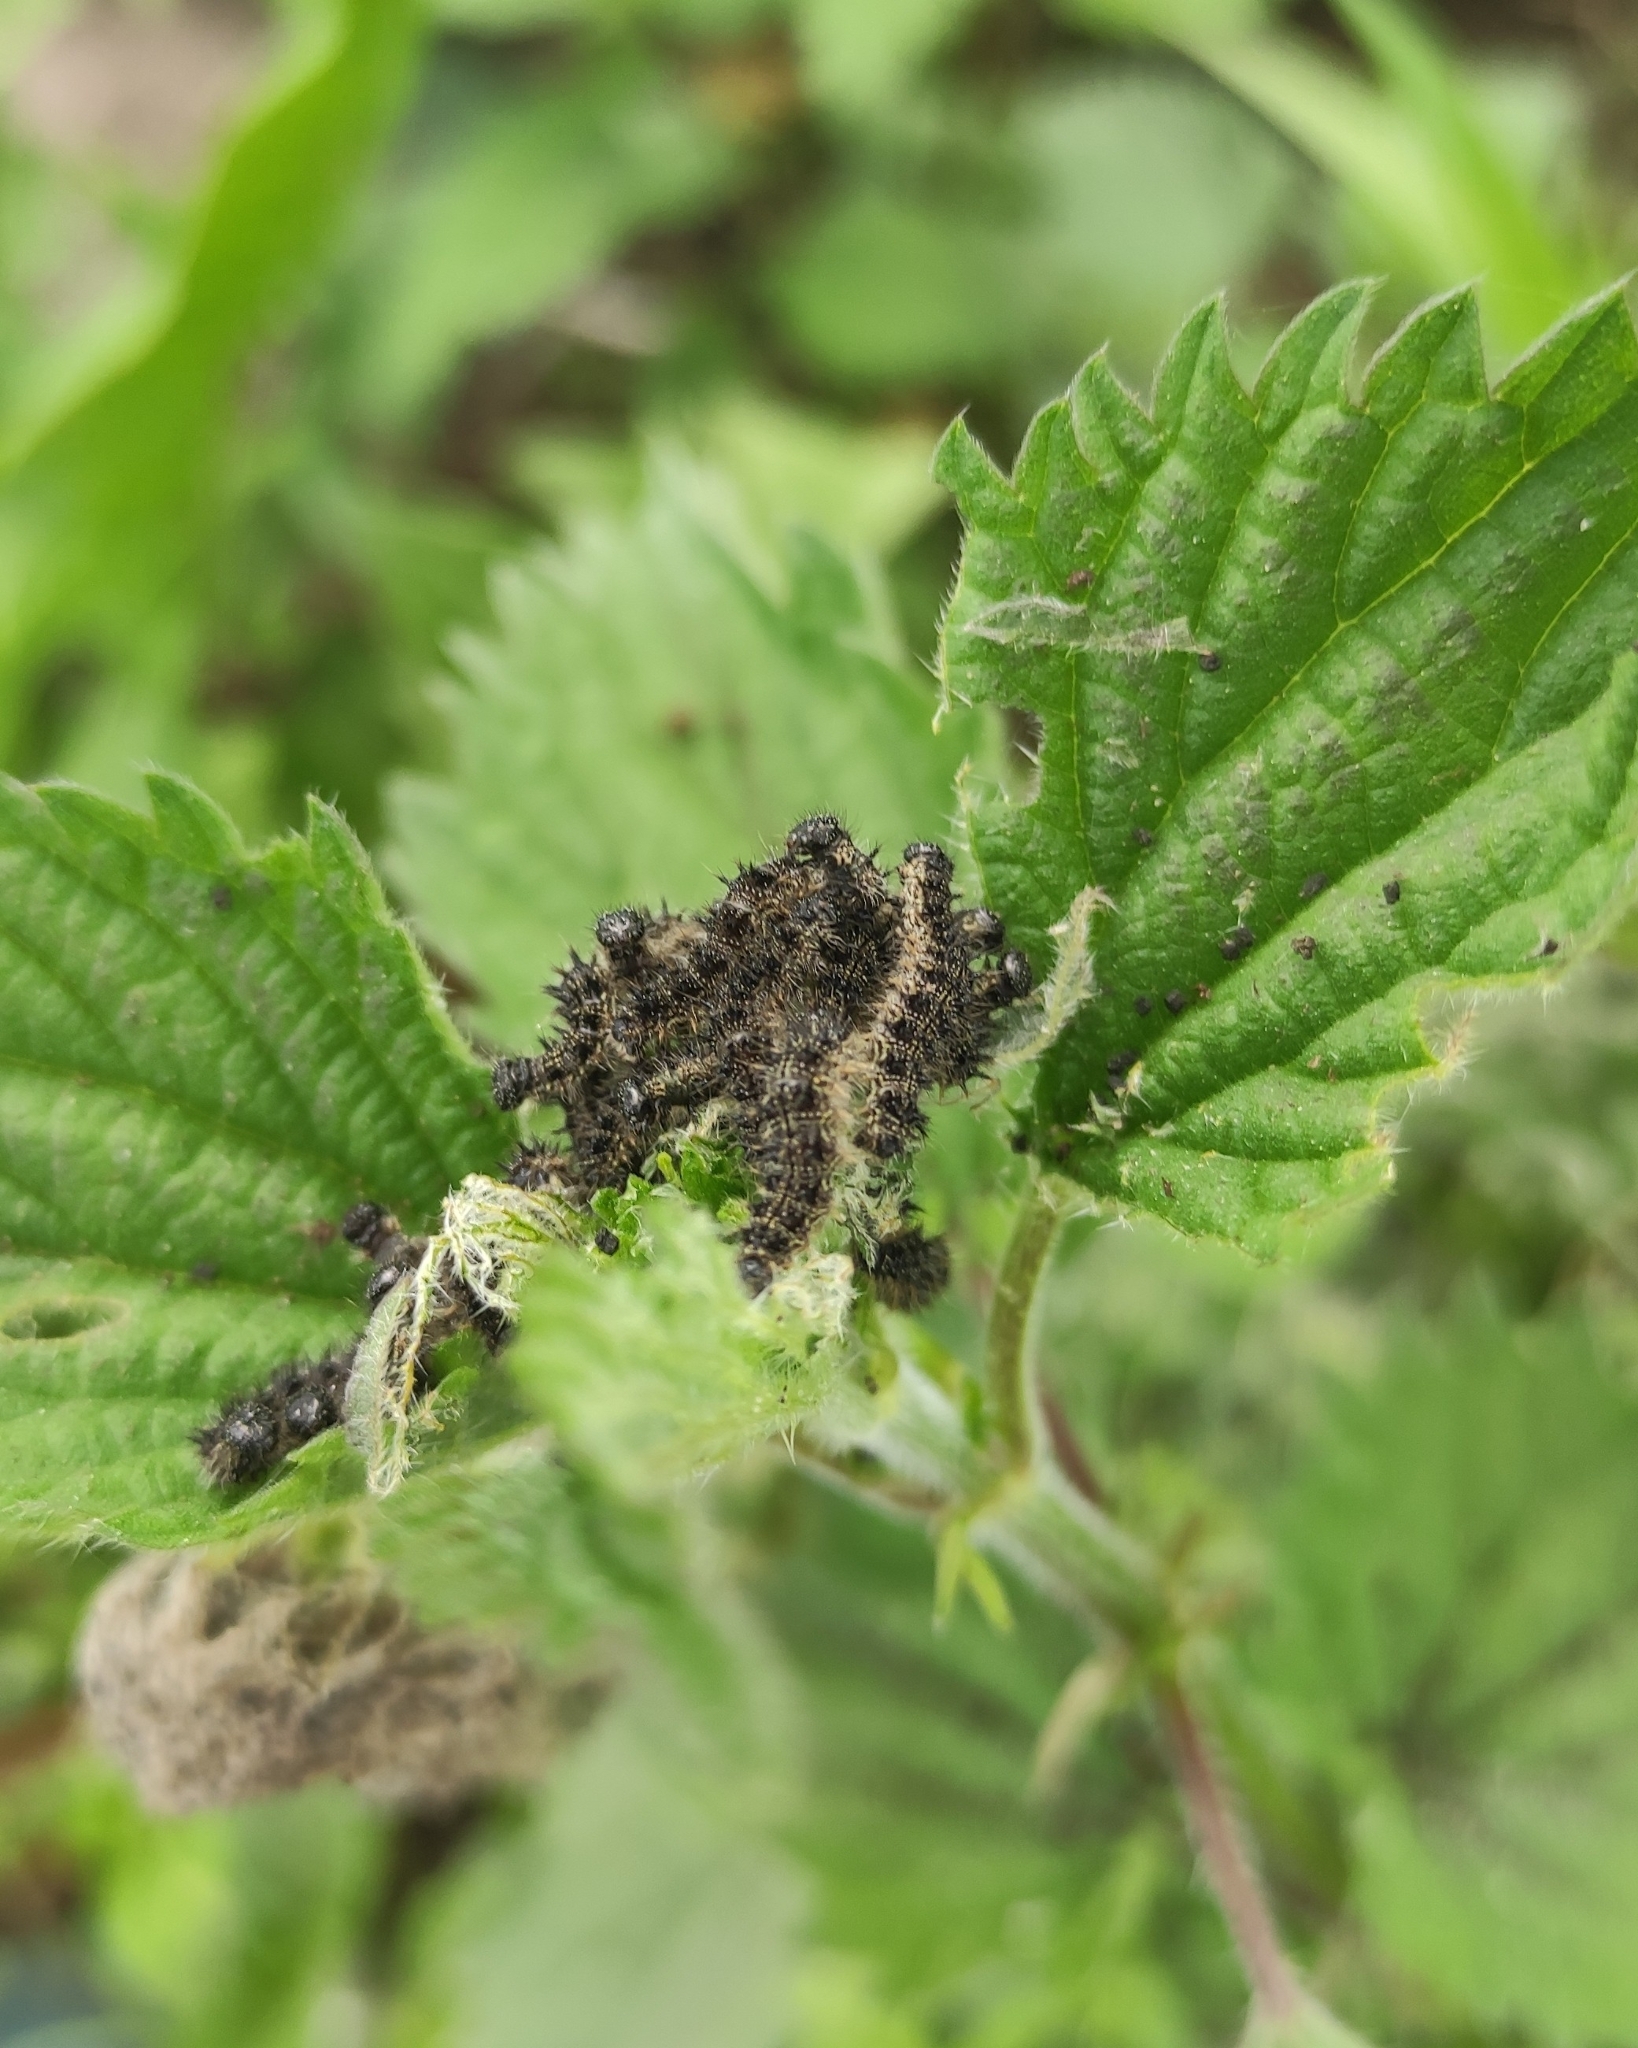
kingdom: Animalia
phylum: Arthropoda
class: Insecta
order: Lepidoptera
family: Nymphalidae
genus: Aglais
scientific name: Aglais urticae
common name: Small tortoiseshell
